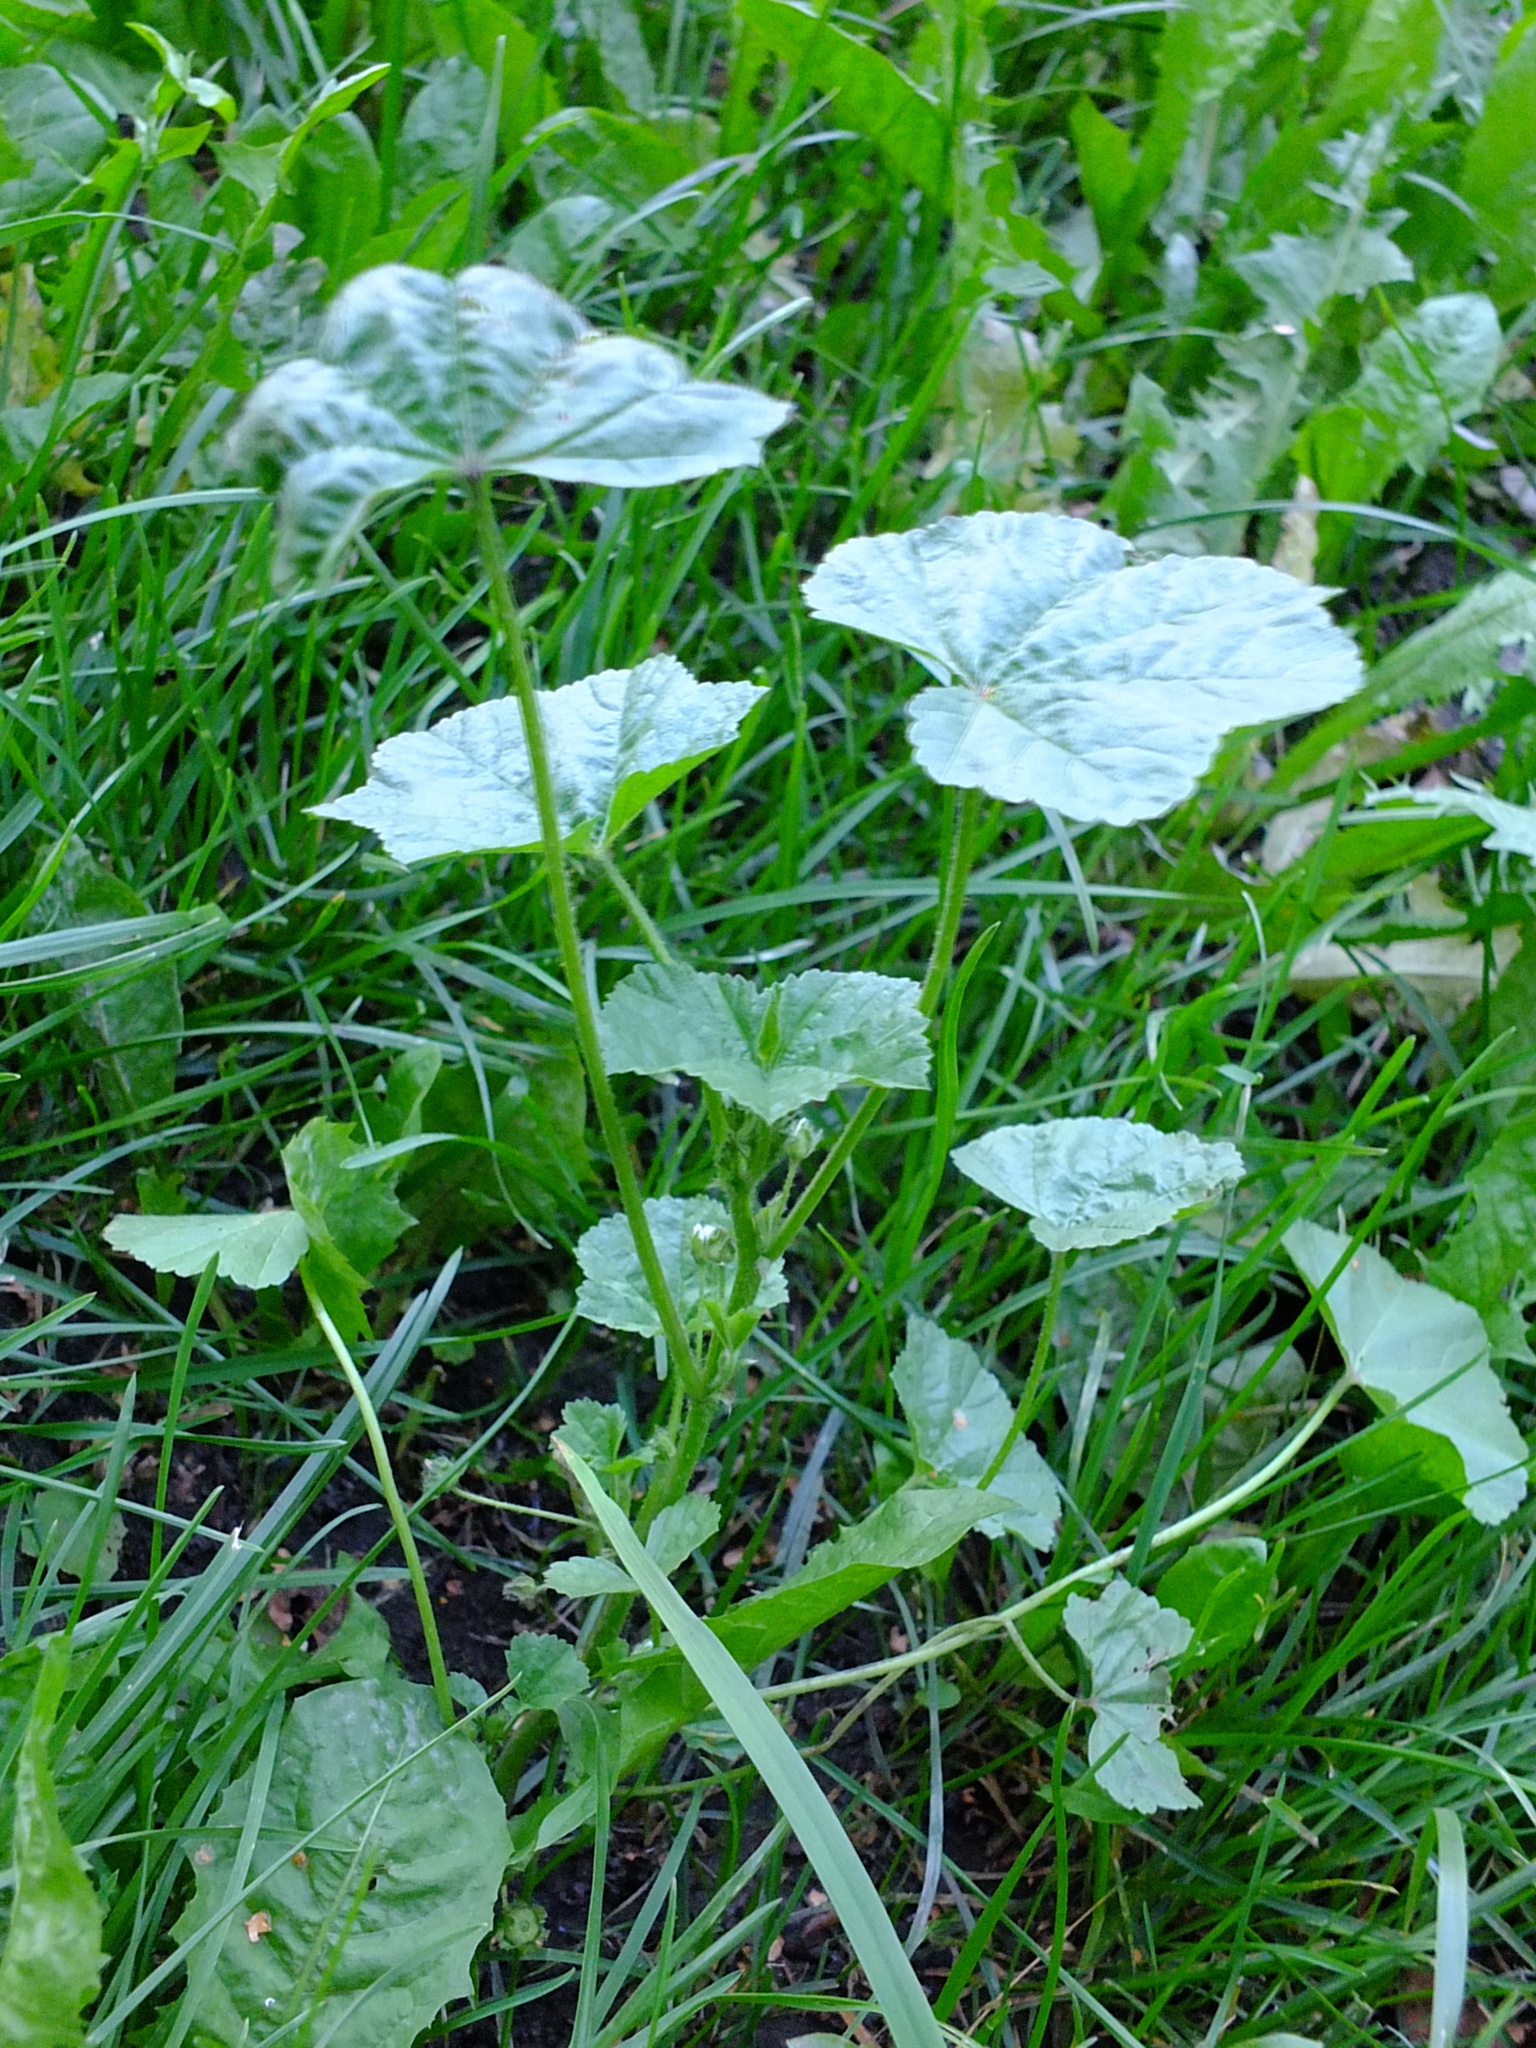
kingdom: Plantae
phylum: Tracheophyta
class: Magnoliopsida
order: Malvales
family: Malvaceae
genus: Malva
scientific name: Malva pusilla
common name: Small mallow
